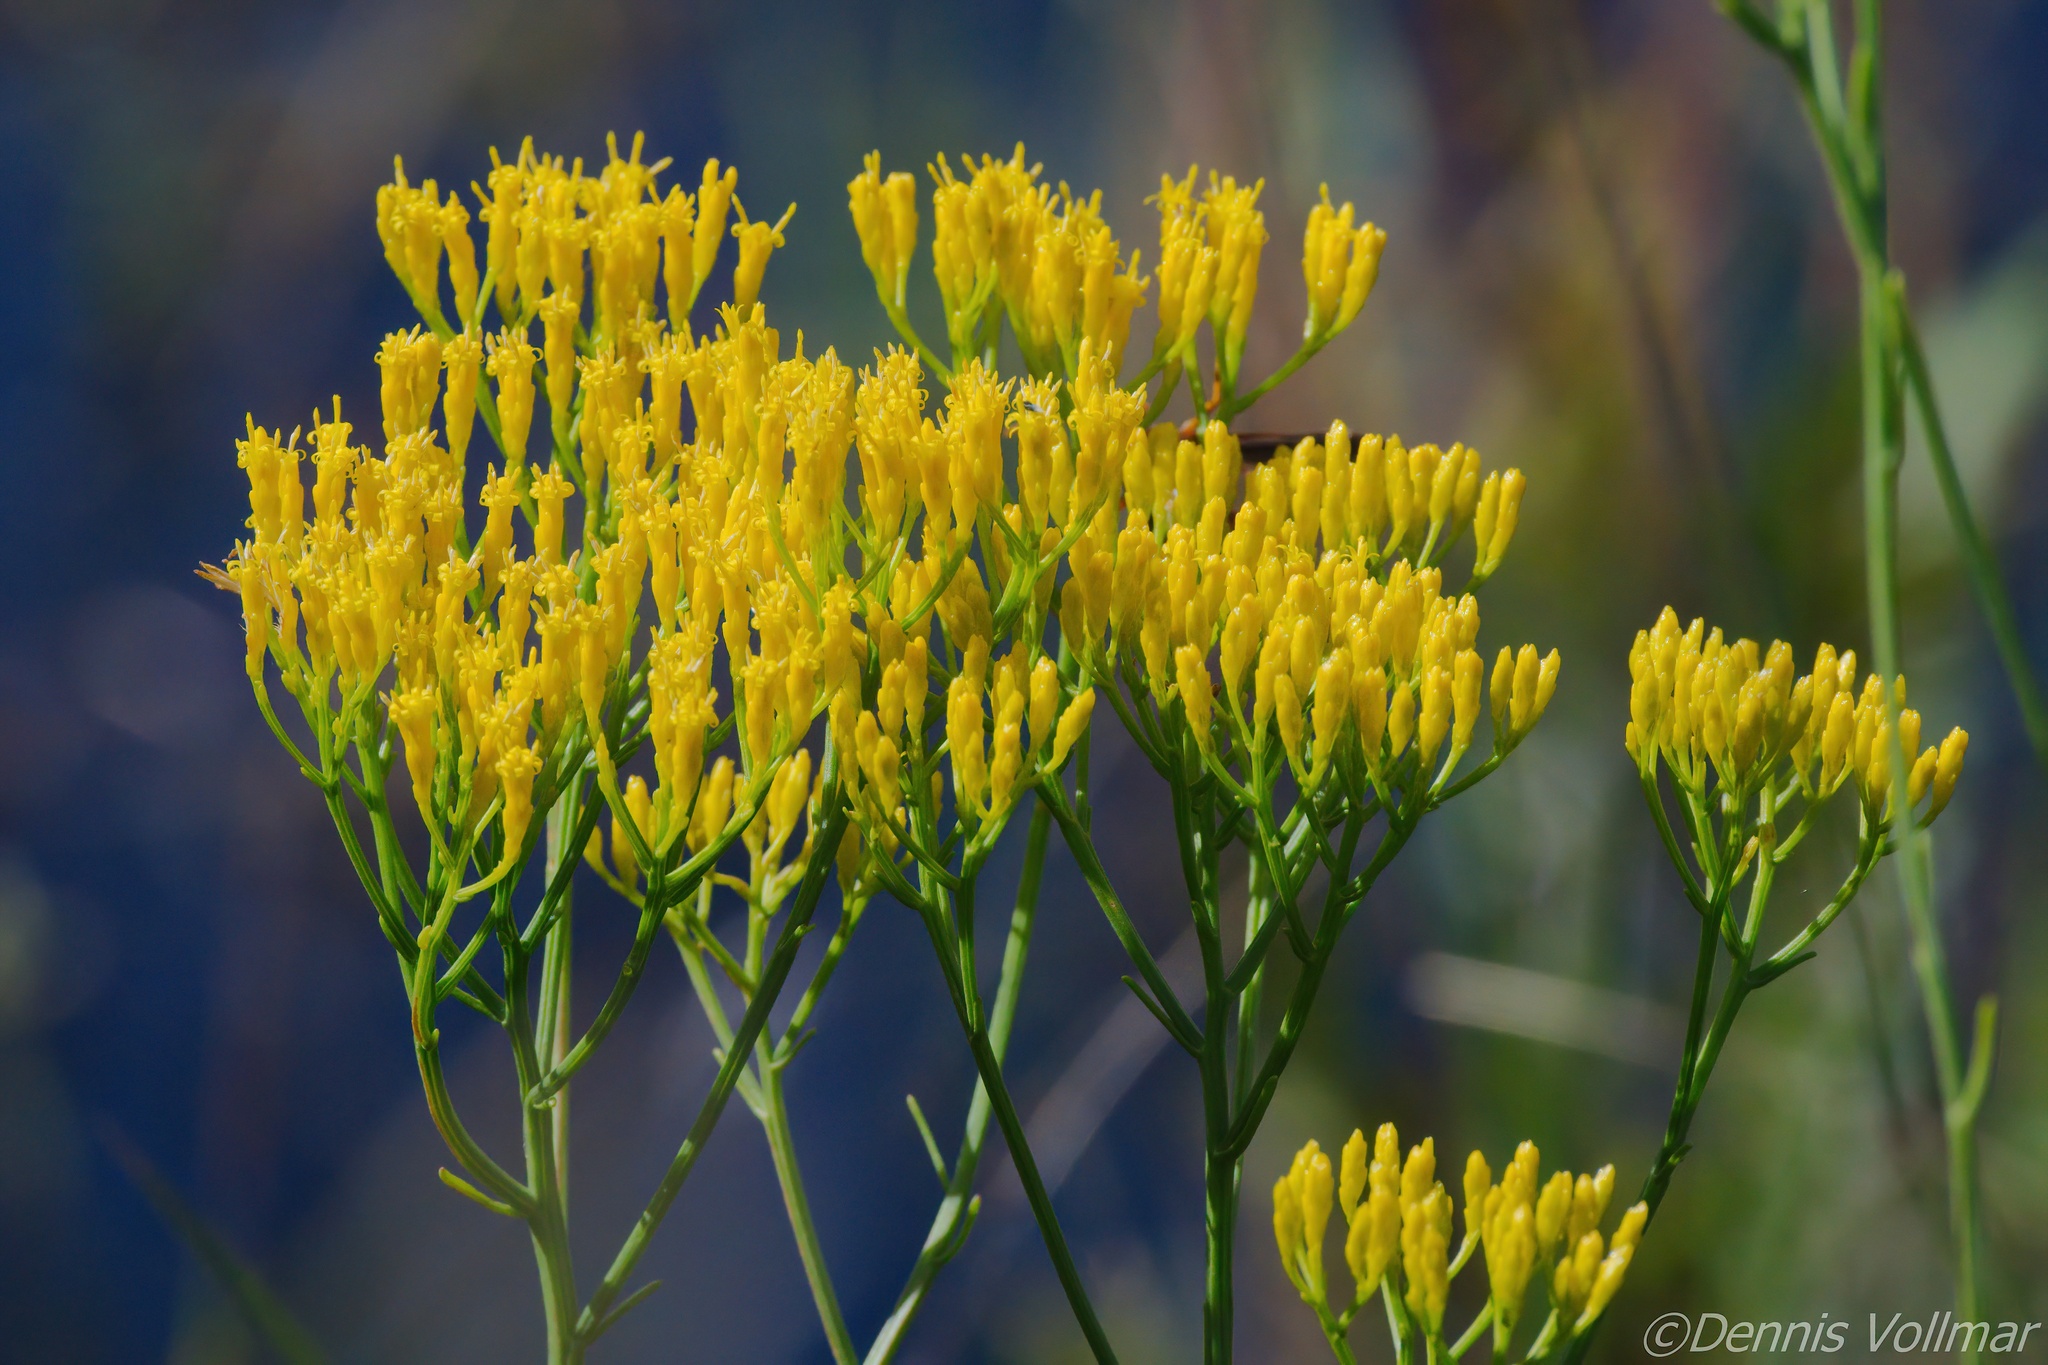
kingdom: Plantae
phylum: Tracheophyta
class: Magnoliopsida
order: Asterales
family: Asteraceae
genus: Bigelowia
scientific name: Bigelowia australis
